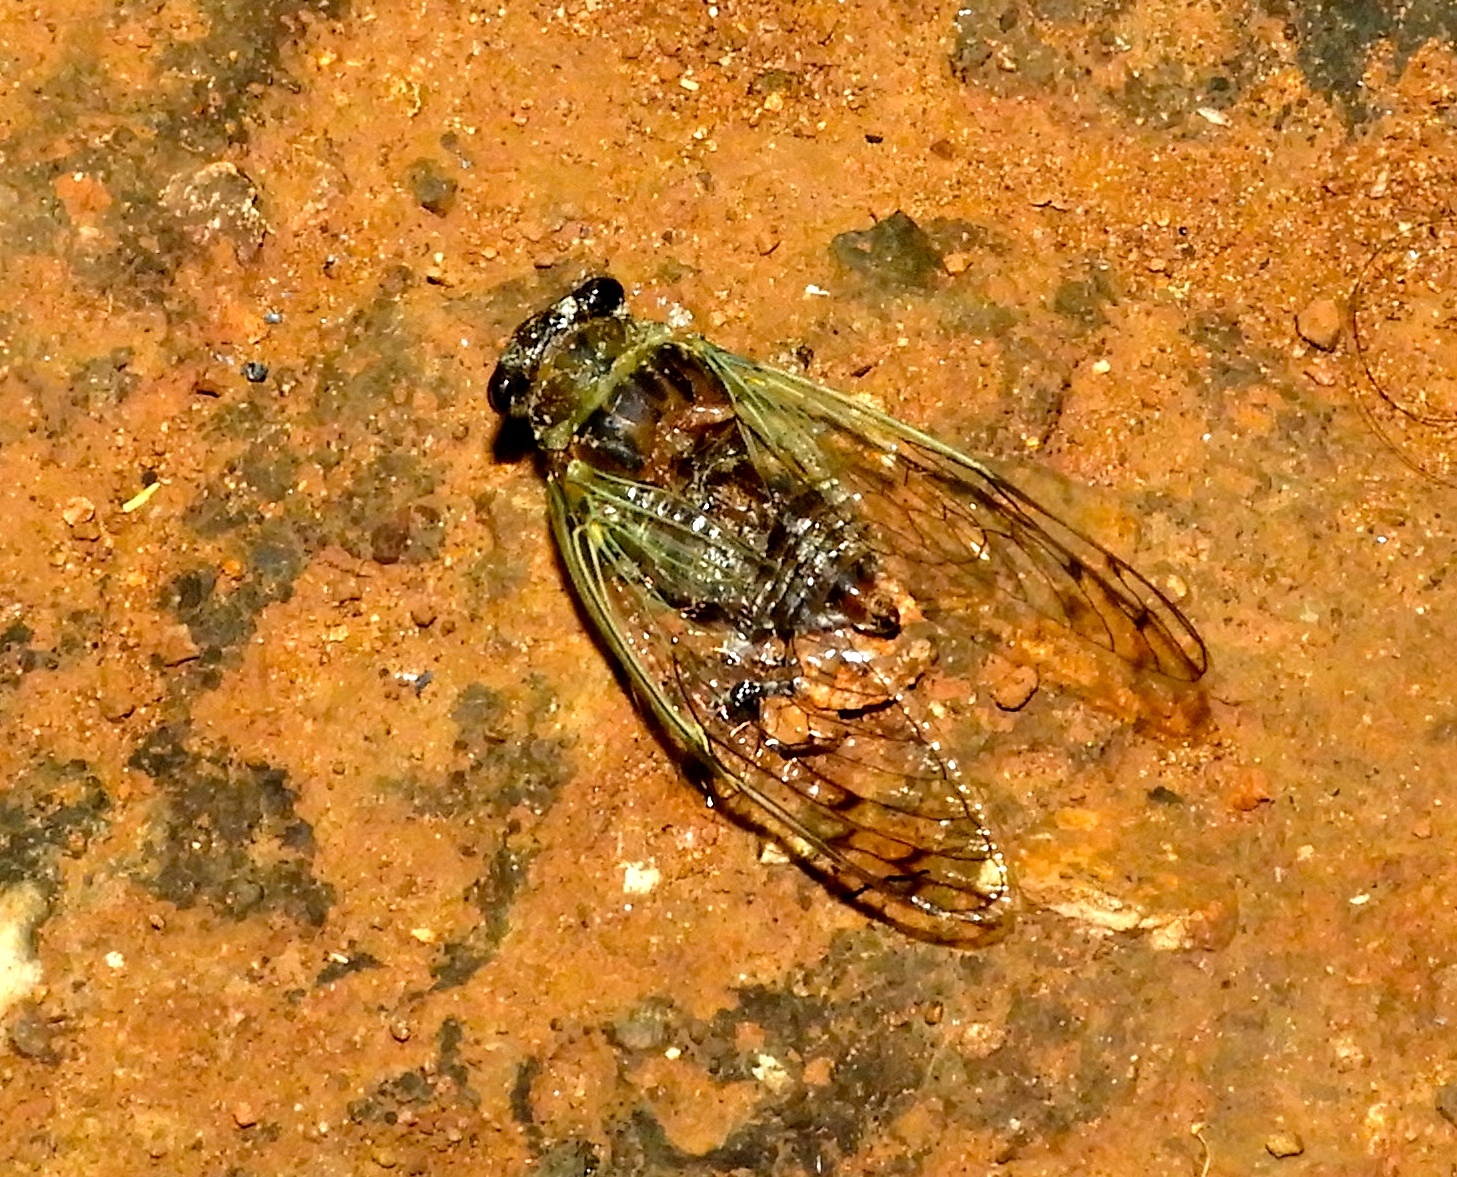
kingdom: Animalia
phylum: Arthropoda
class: Insecta
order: Hemiptera
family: Cicadidae
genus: Diceroprocta
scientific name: Diceroprocta tepicana
